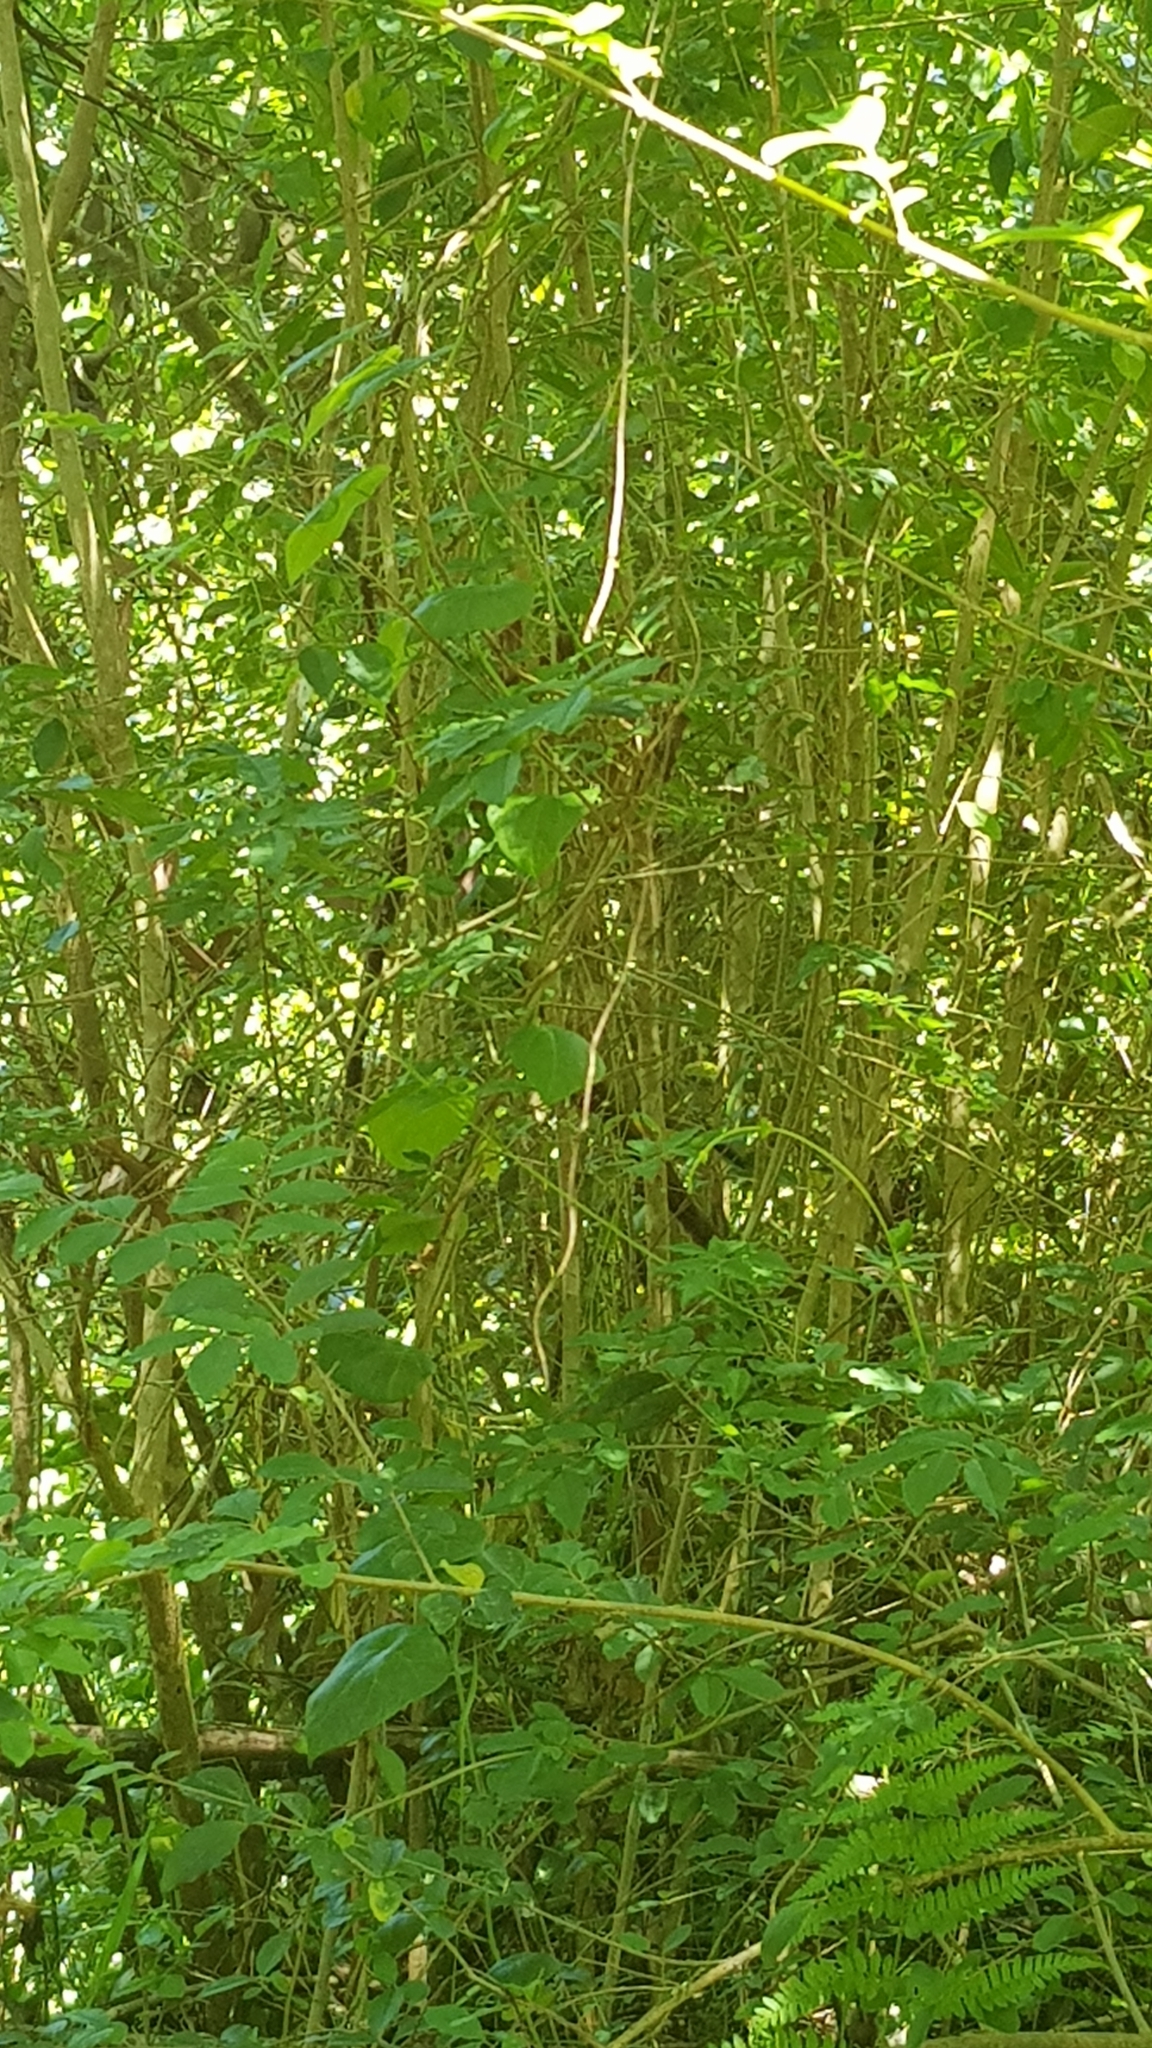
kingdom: Animalia
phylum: Chordata
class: Aves
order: Passeriformes
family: Pachycephalidae
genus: Pachycephala
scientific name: Pachycephala pectoralis
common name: Australian golden whistler
